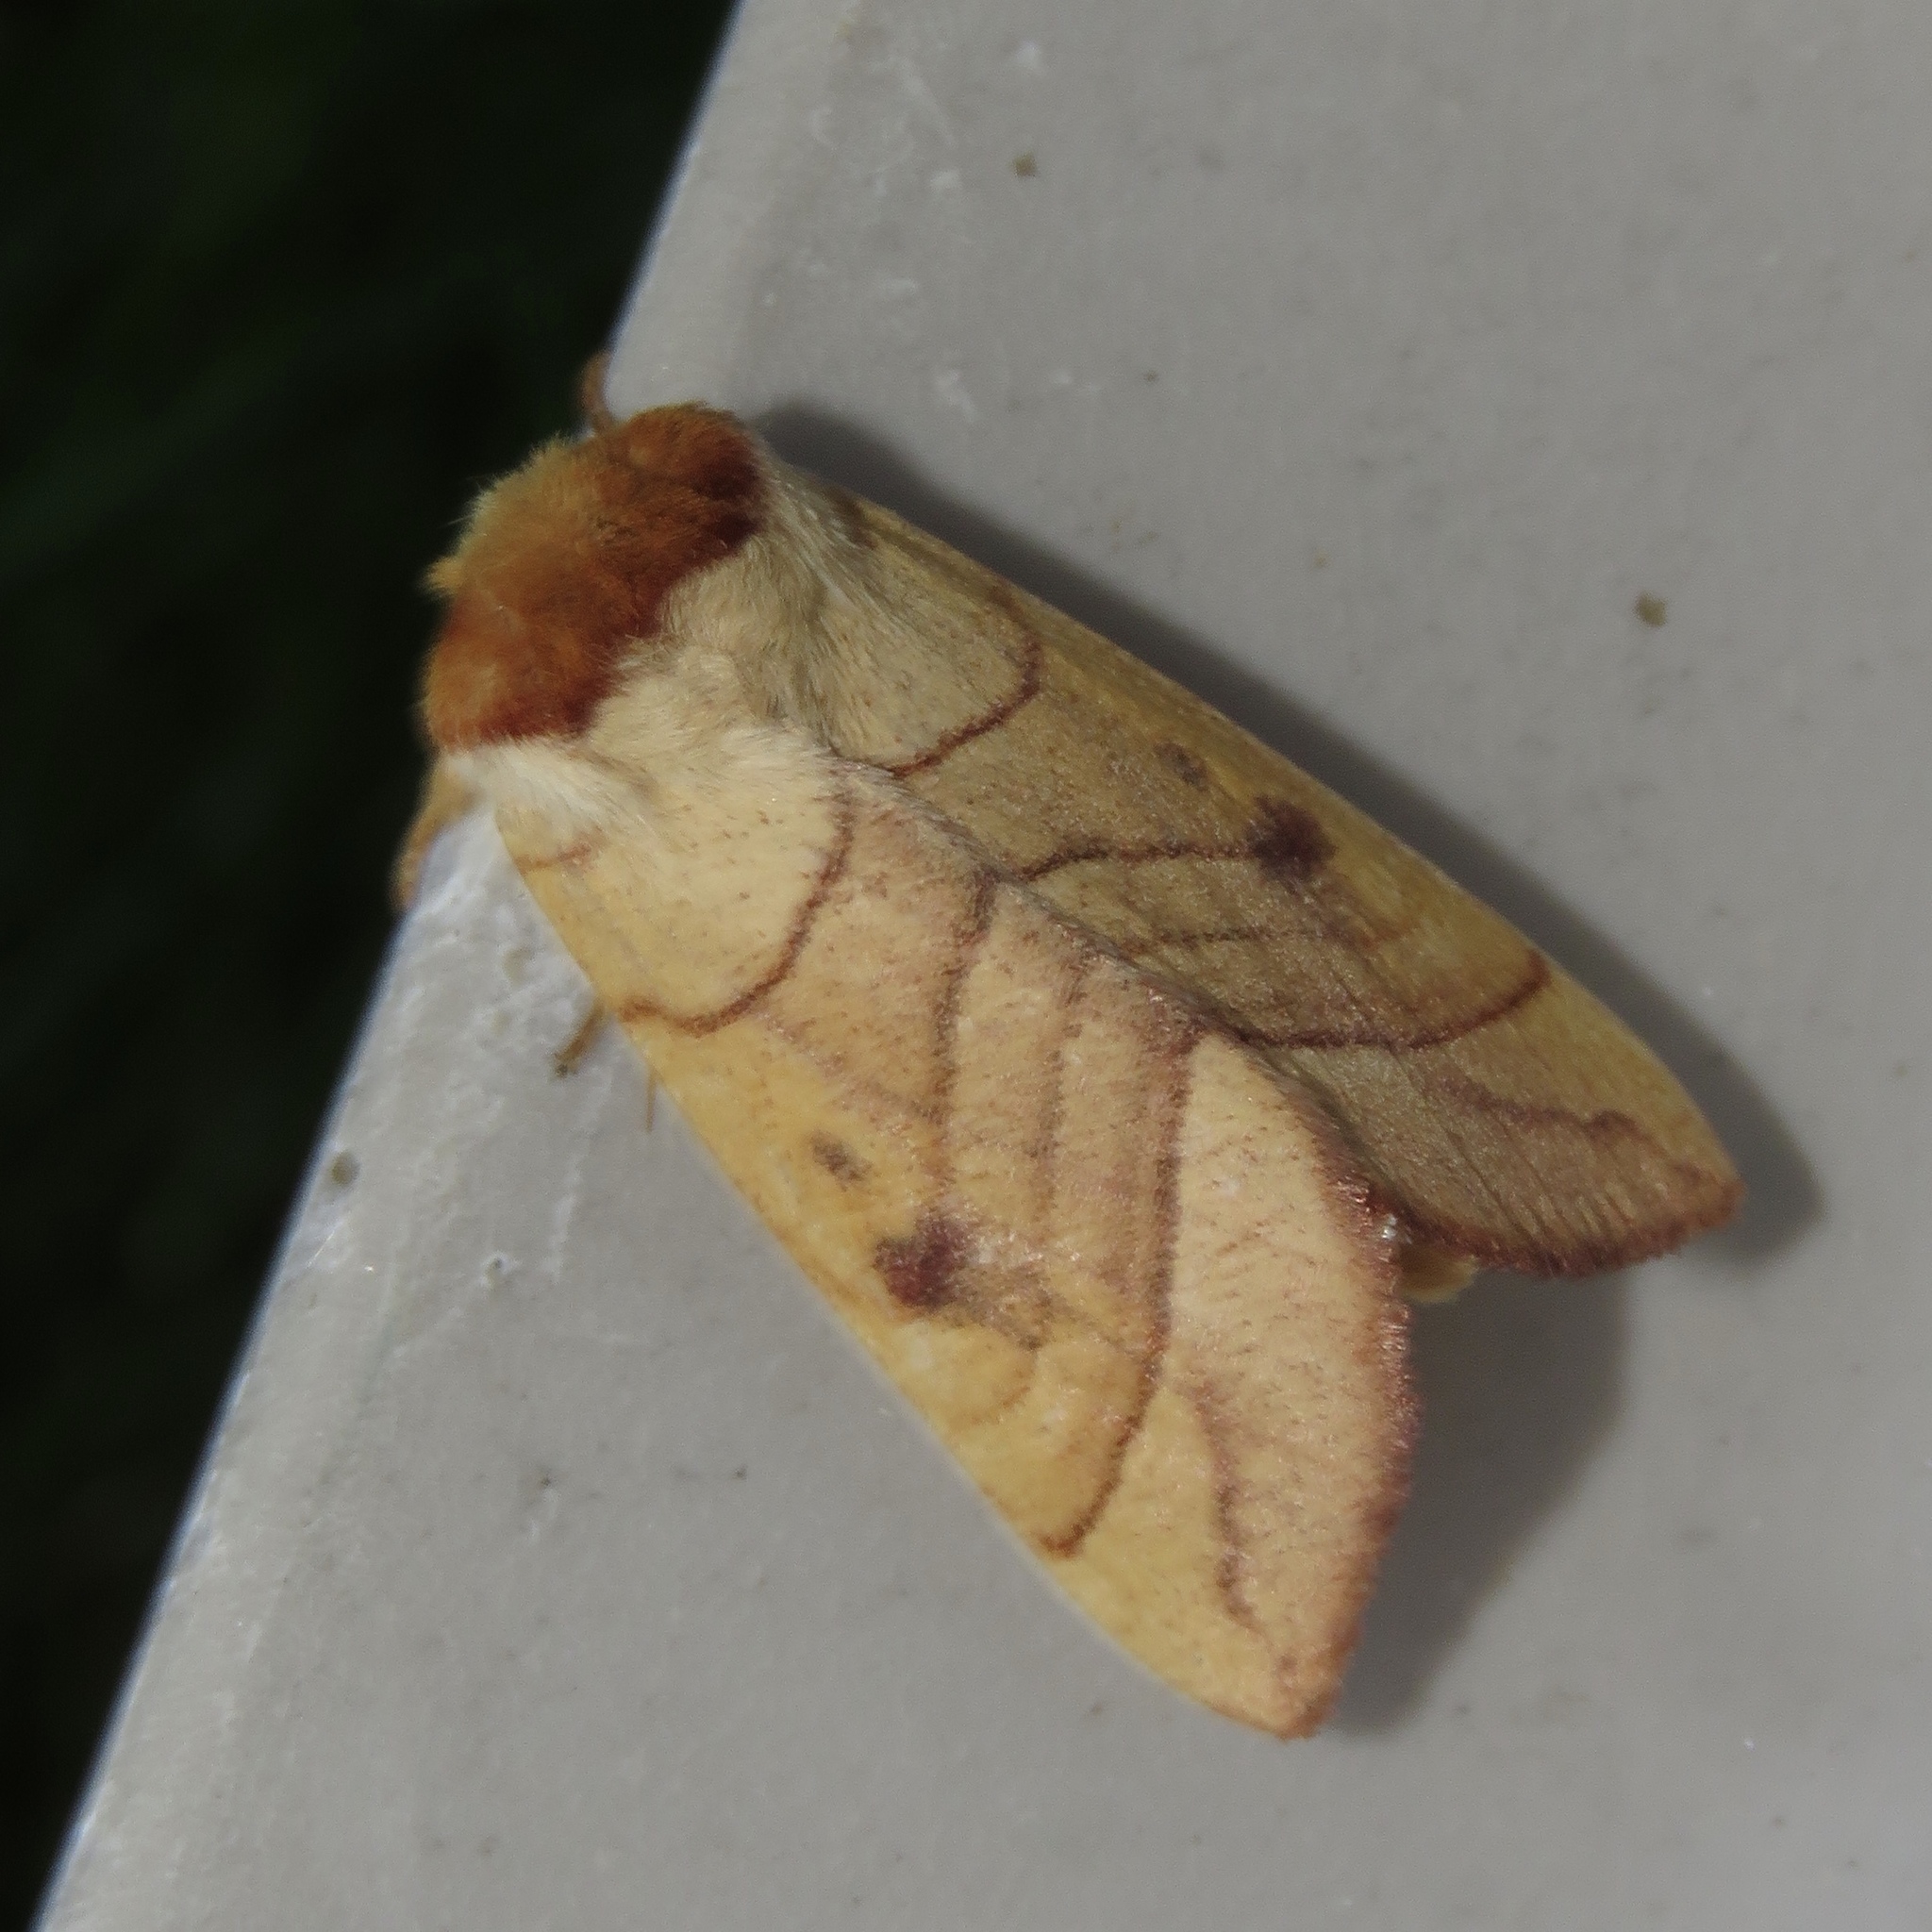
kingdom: Animalia
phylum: Arthropoda
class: Insecta
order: Lepidoptera
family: Notodontidae
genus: Datana
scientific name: Datana perspicua
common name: Spotted datana
